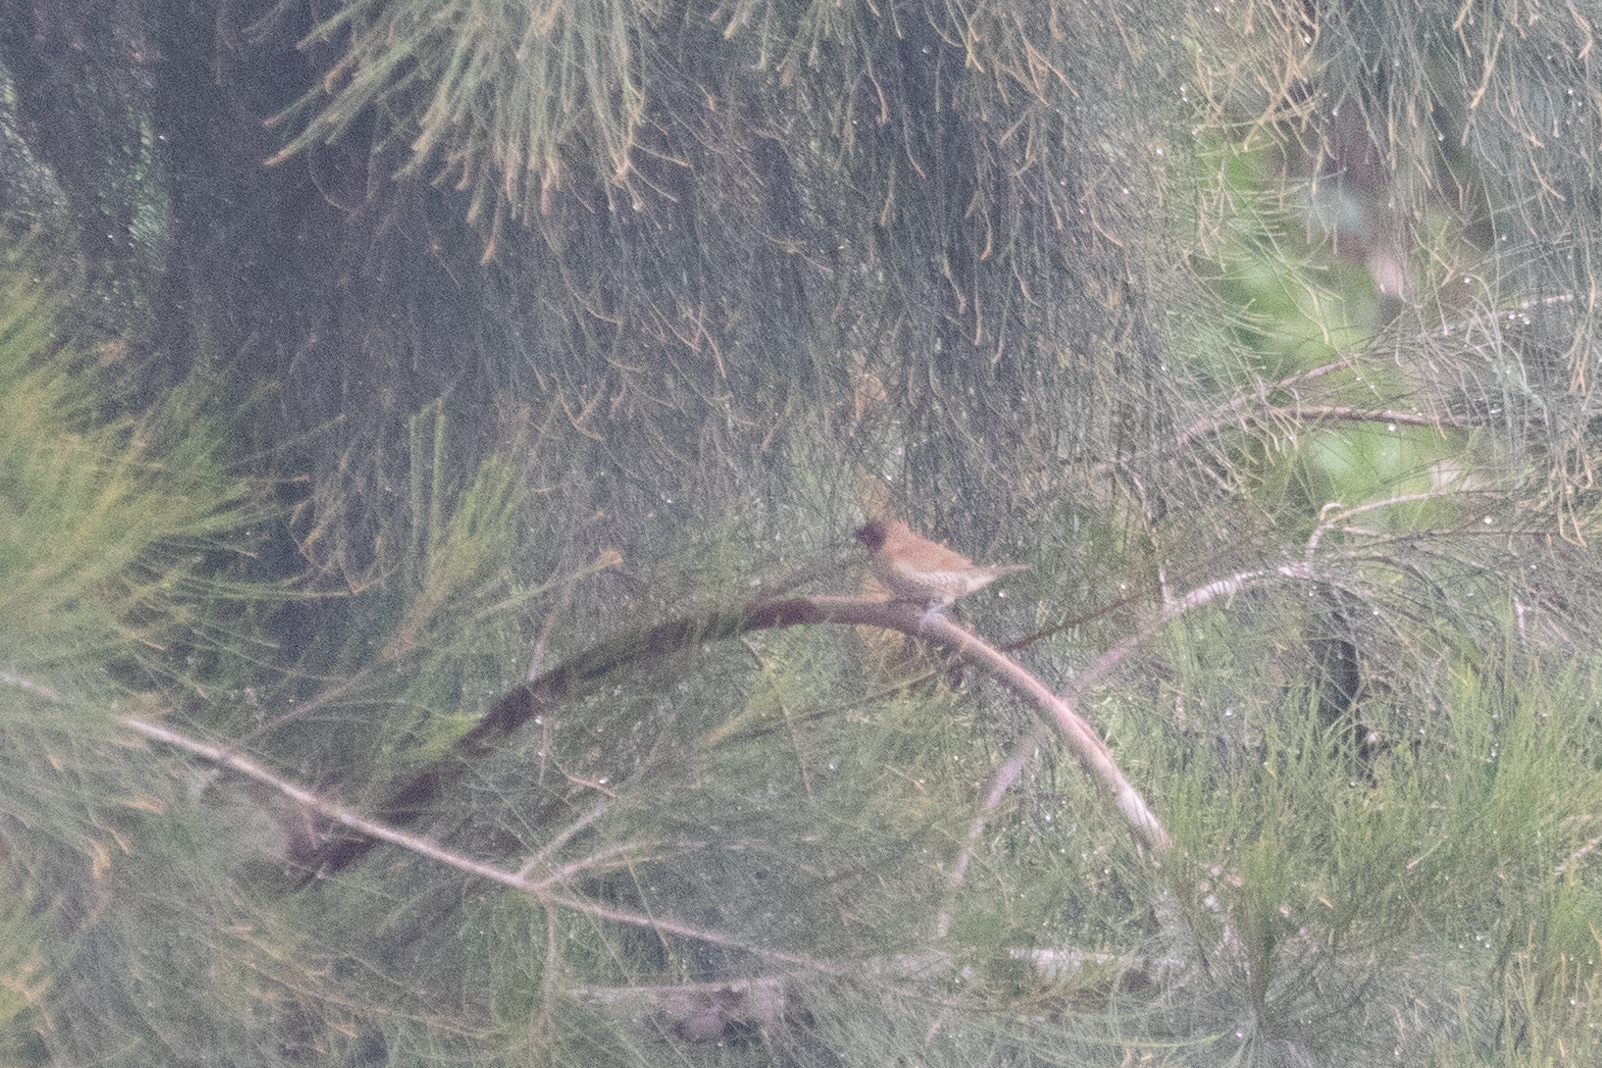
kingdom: Animalia
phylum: Chordata
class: Aves
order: Passeriformes
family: Estrildidae
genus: Lonchura
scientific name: Lonchura punctulata
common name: Scaly-breasted munia
